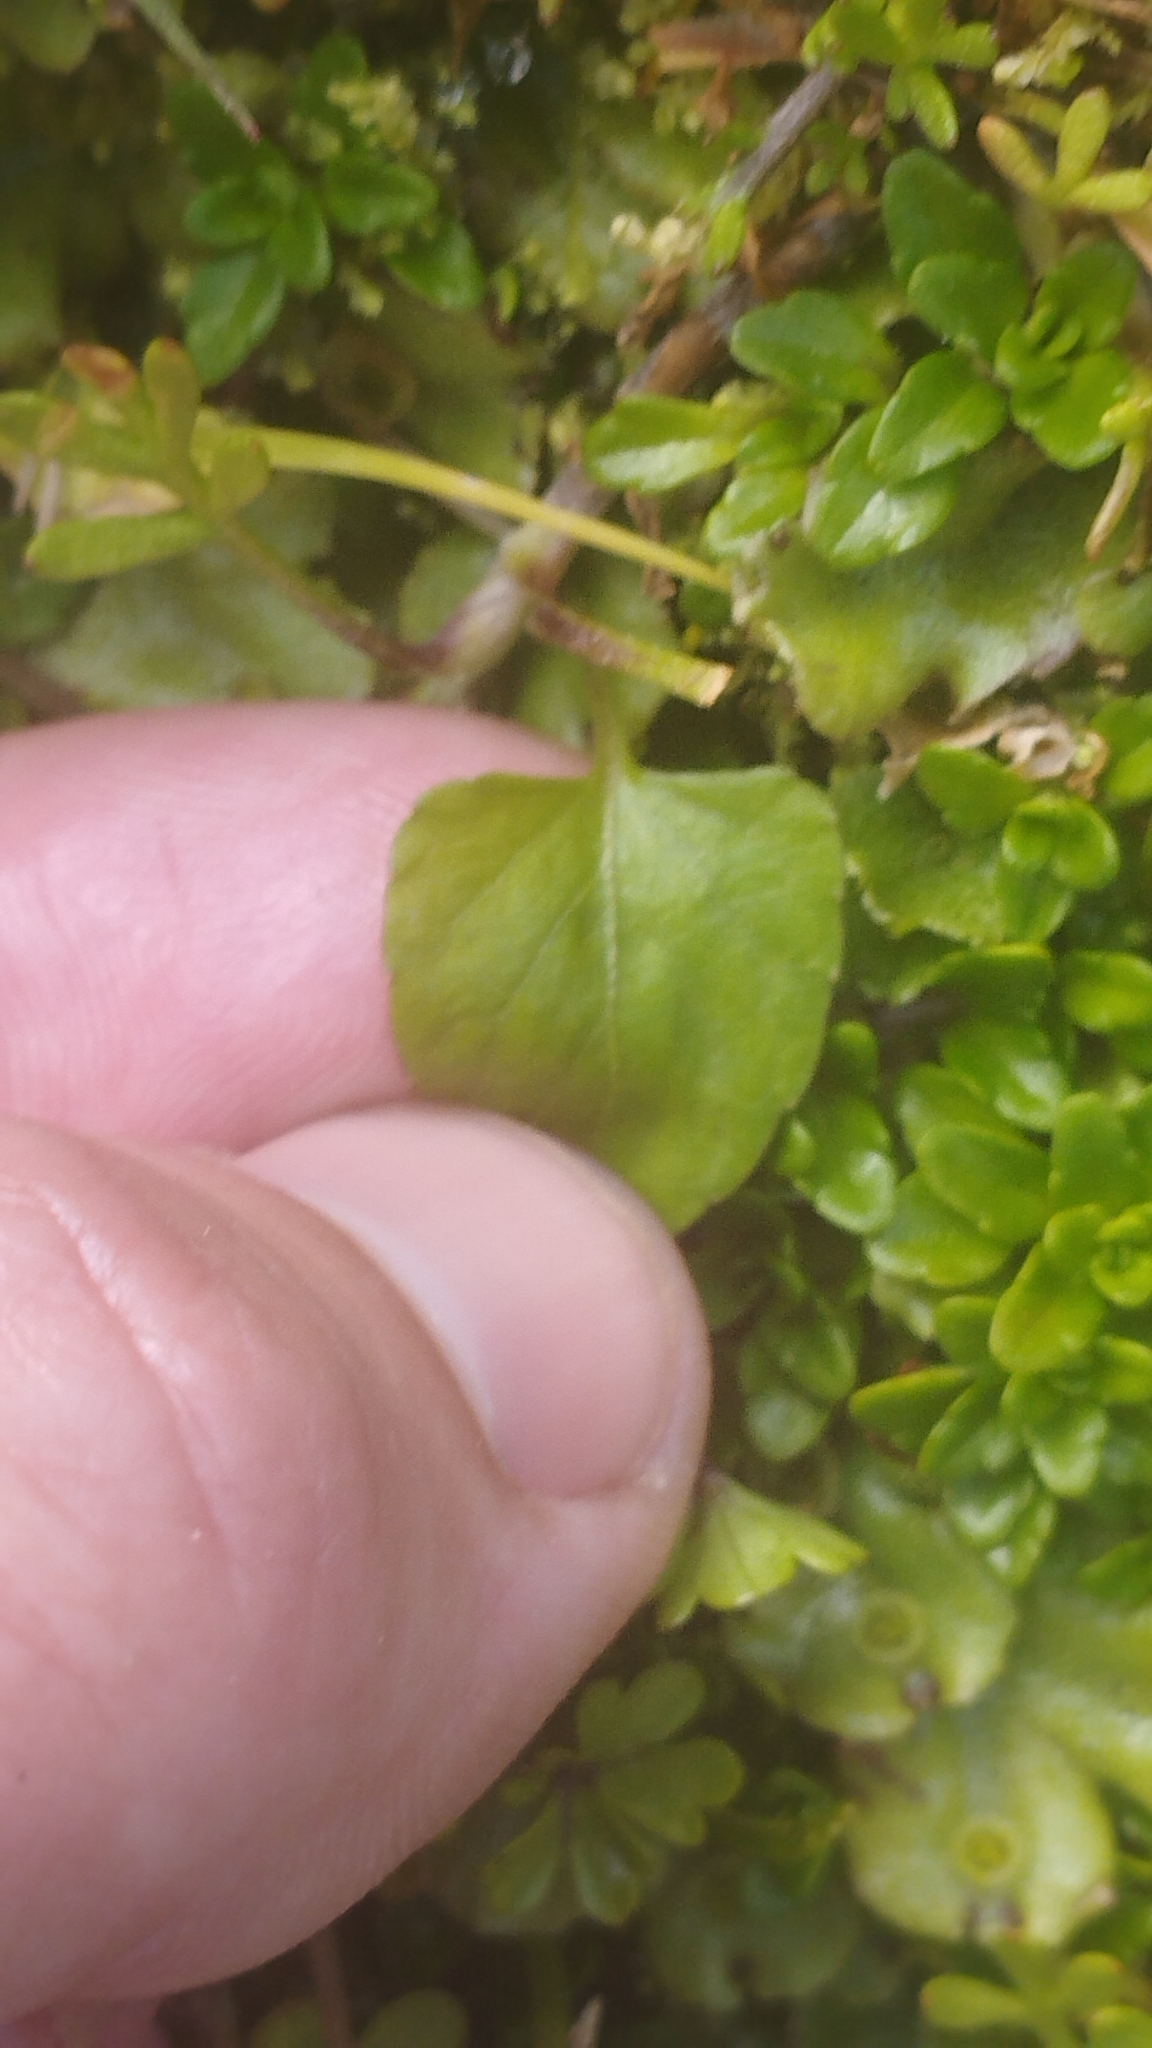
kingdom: Plantae
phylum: Tracheophyta
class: Magnoliopsida
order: Malpighiales
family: Violaceae
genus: Viola
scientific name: Viola cunninghamii
